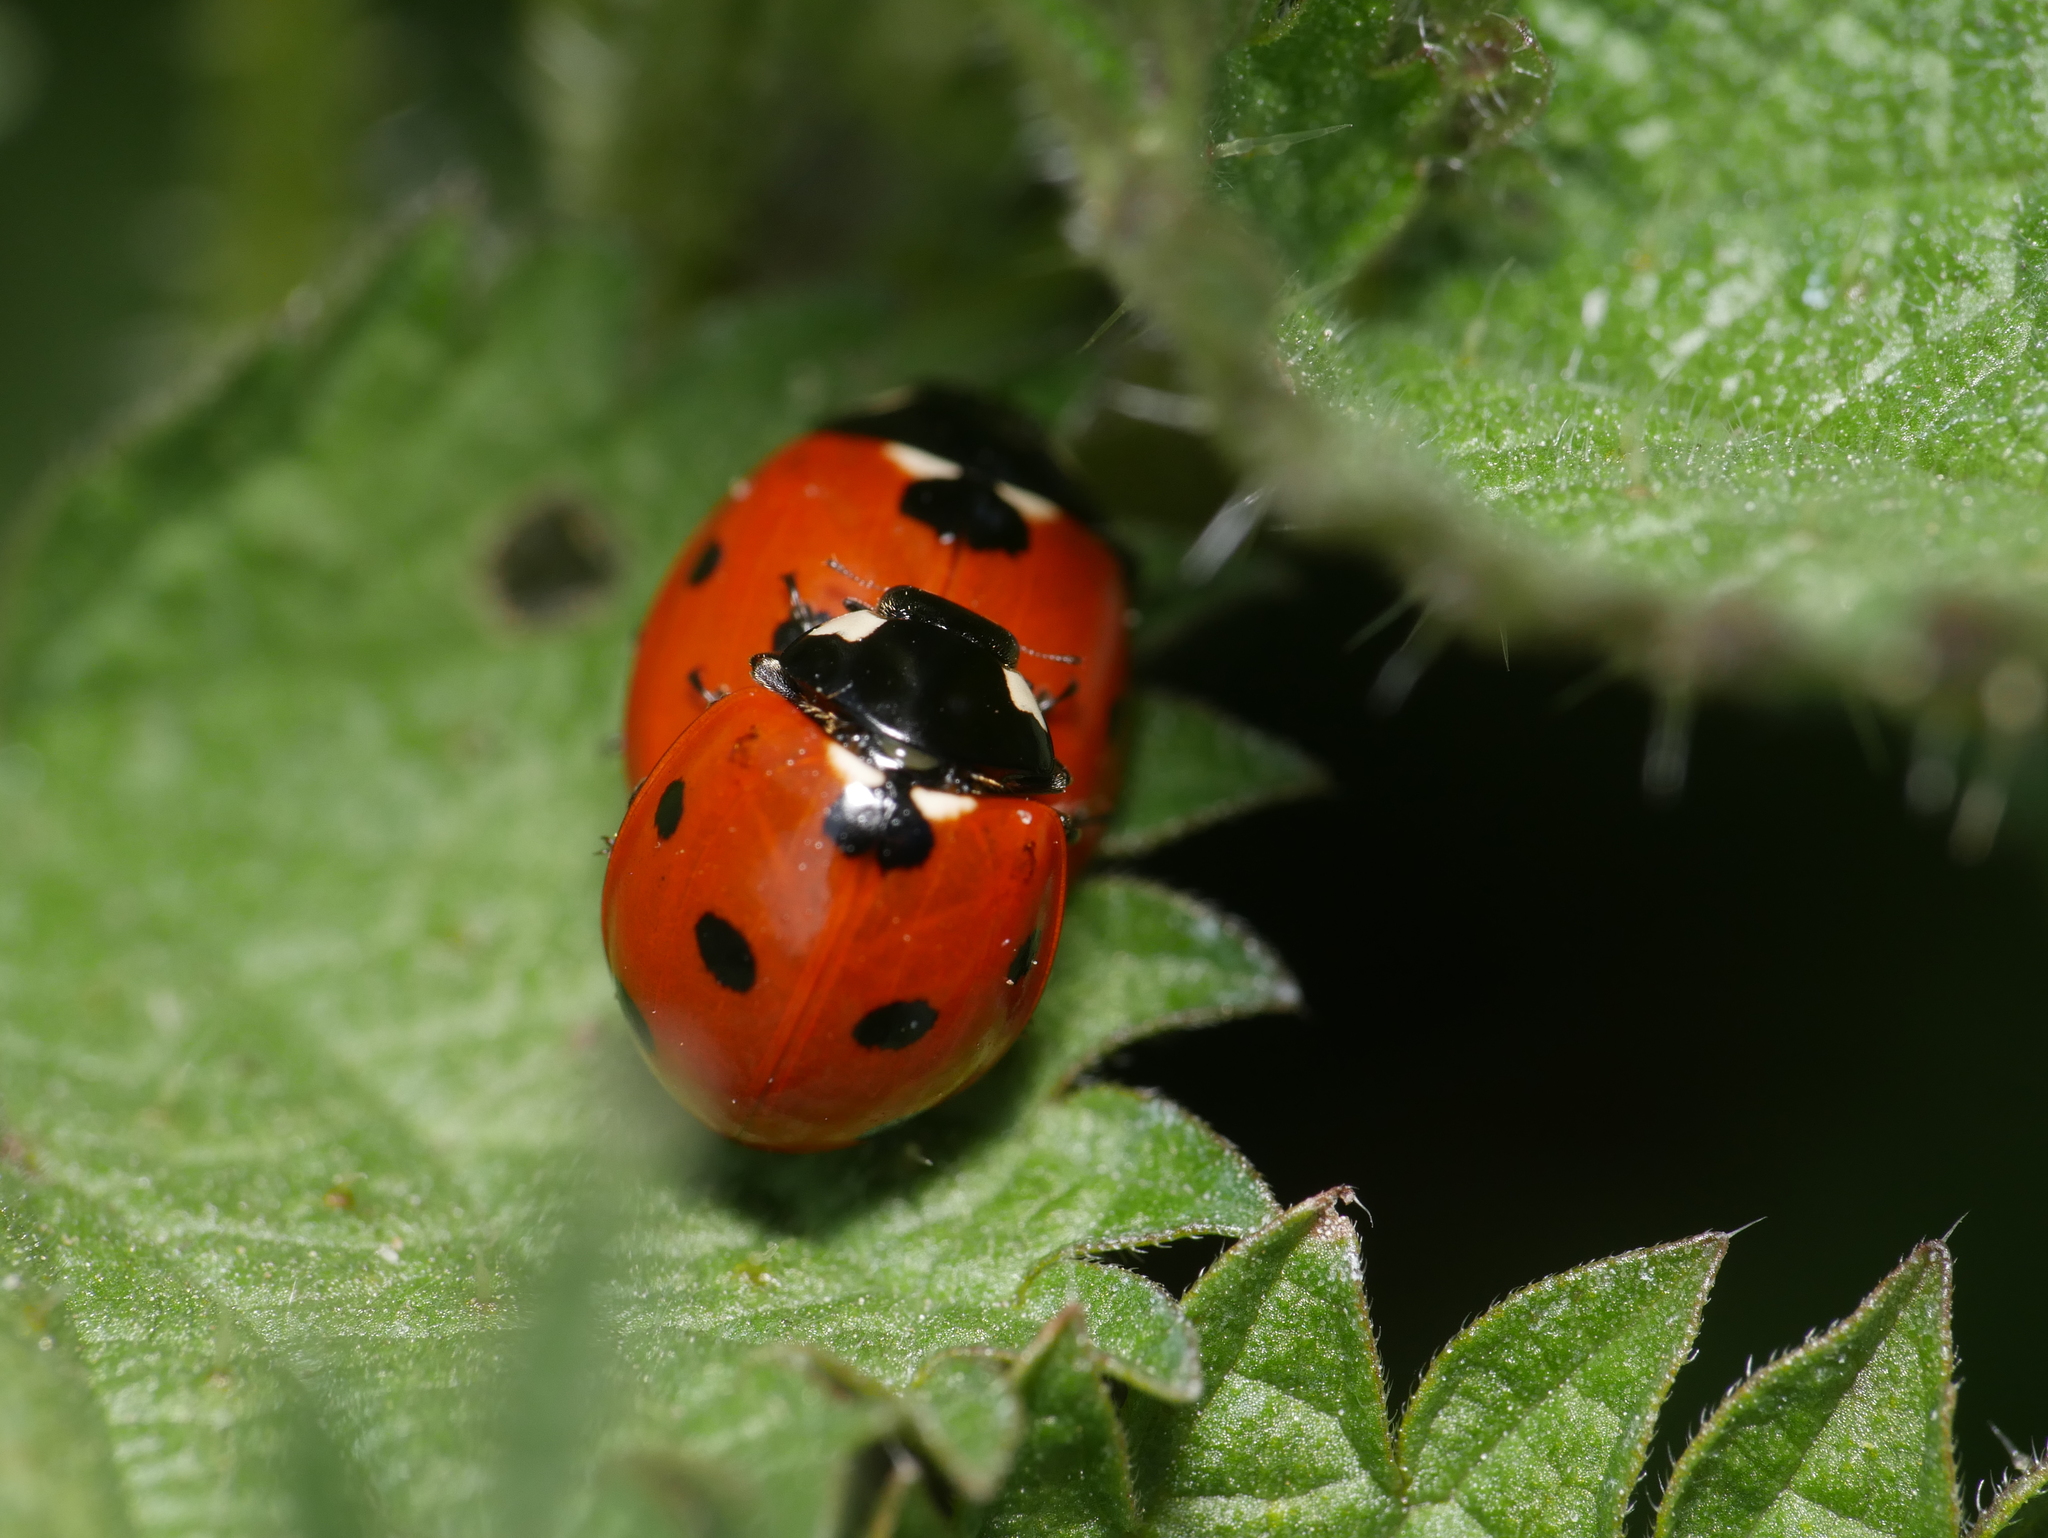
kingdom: Animalia
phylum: Arthropoda
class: Insecta
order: Coleoptera
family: Coccinellidae
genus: Coccinella
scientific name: Coccinella septempunctata
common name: Sevenspotted lady beetle
